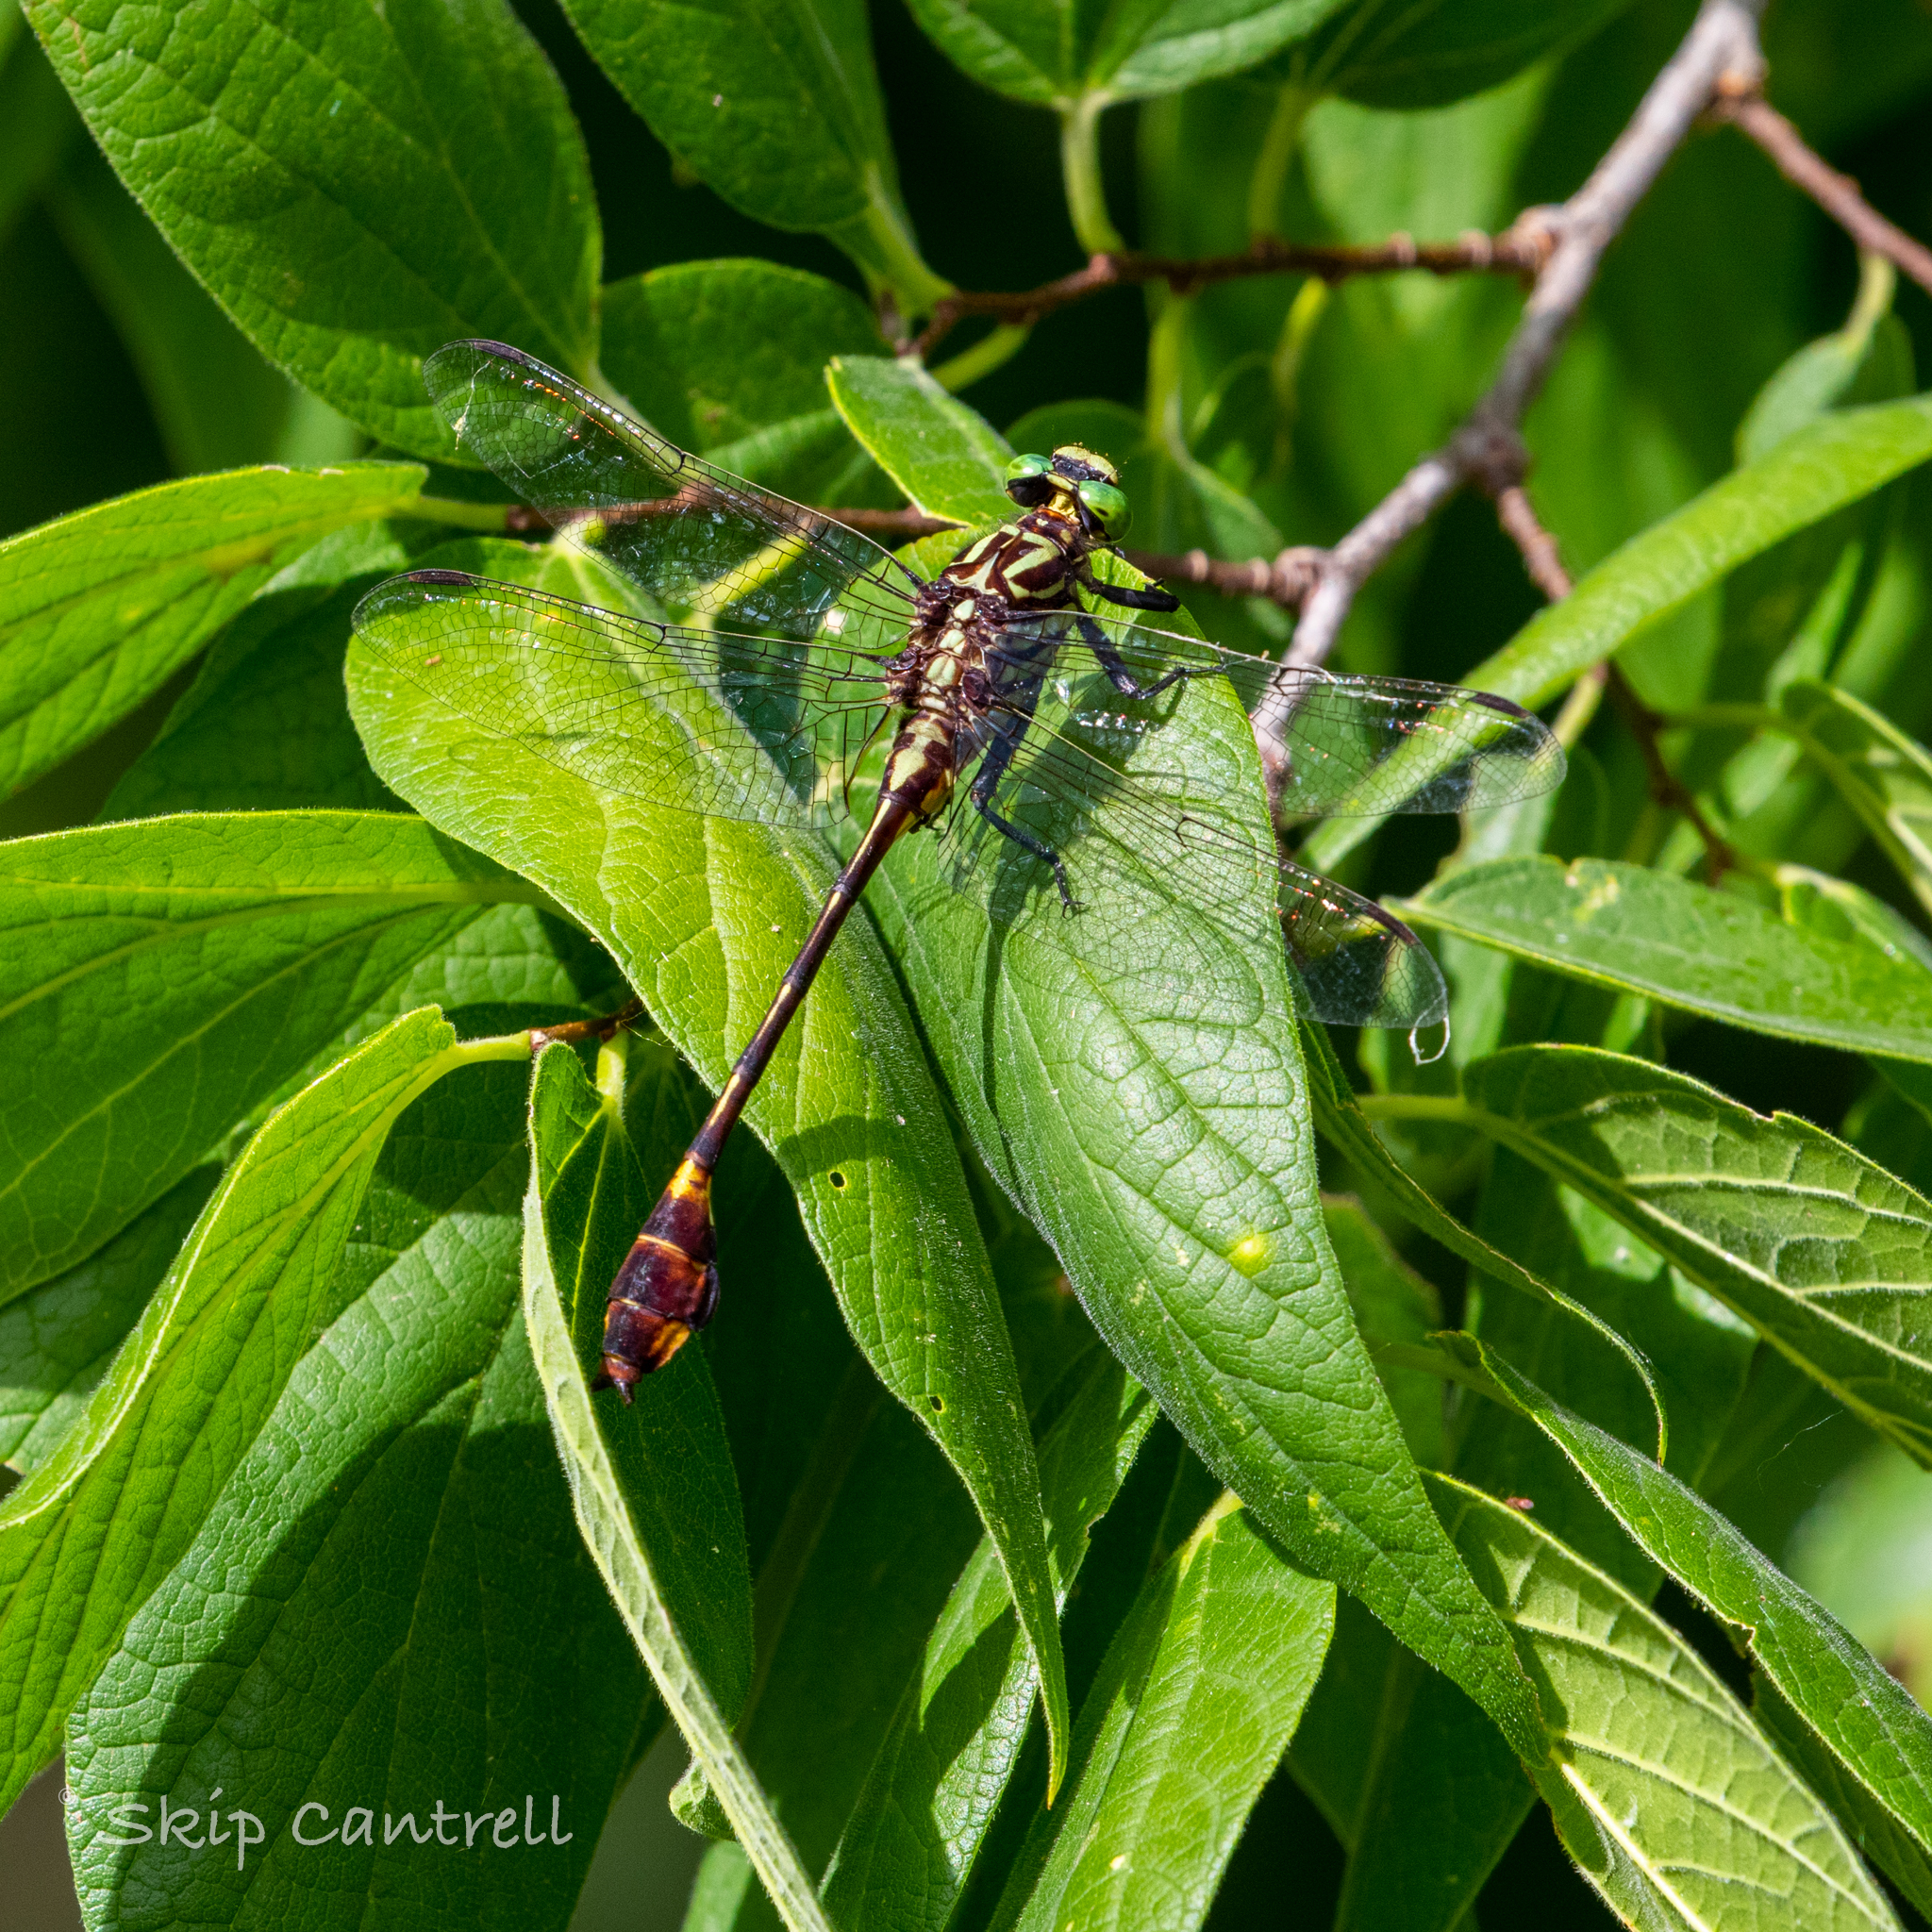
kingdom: Animalia
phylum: Arthropoda
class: Insecta
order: Odonata
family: Gomphidae
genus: Gomphurus
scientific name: Gomphurus vastus
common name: Cobra clubtail
